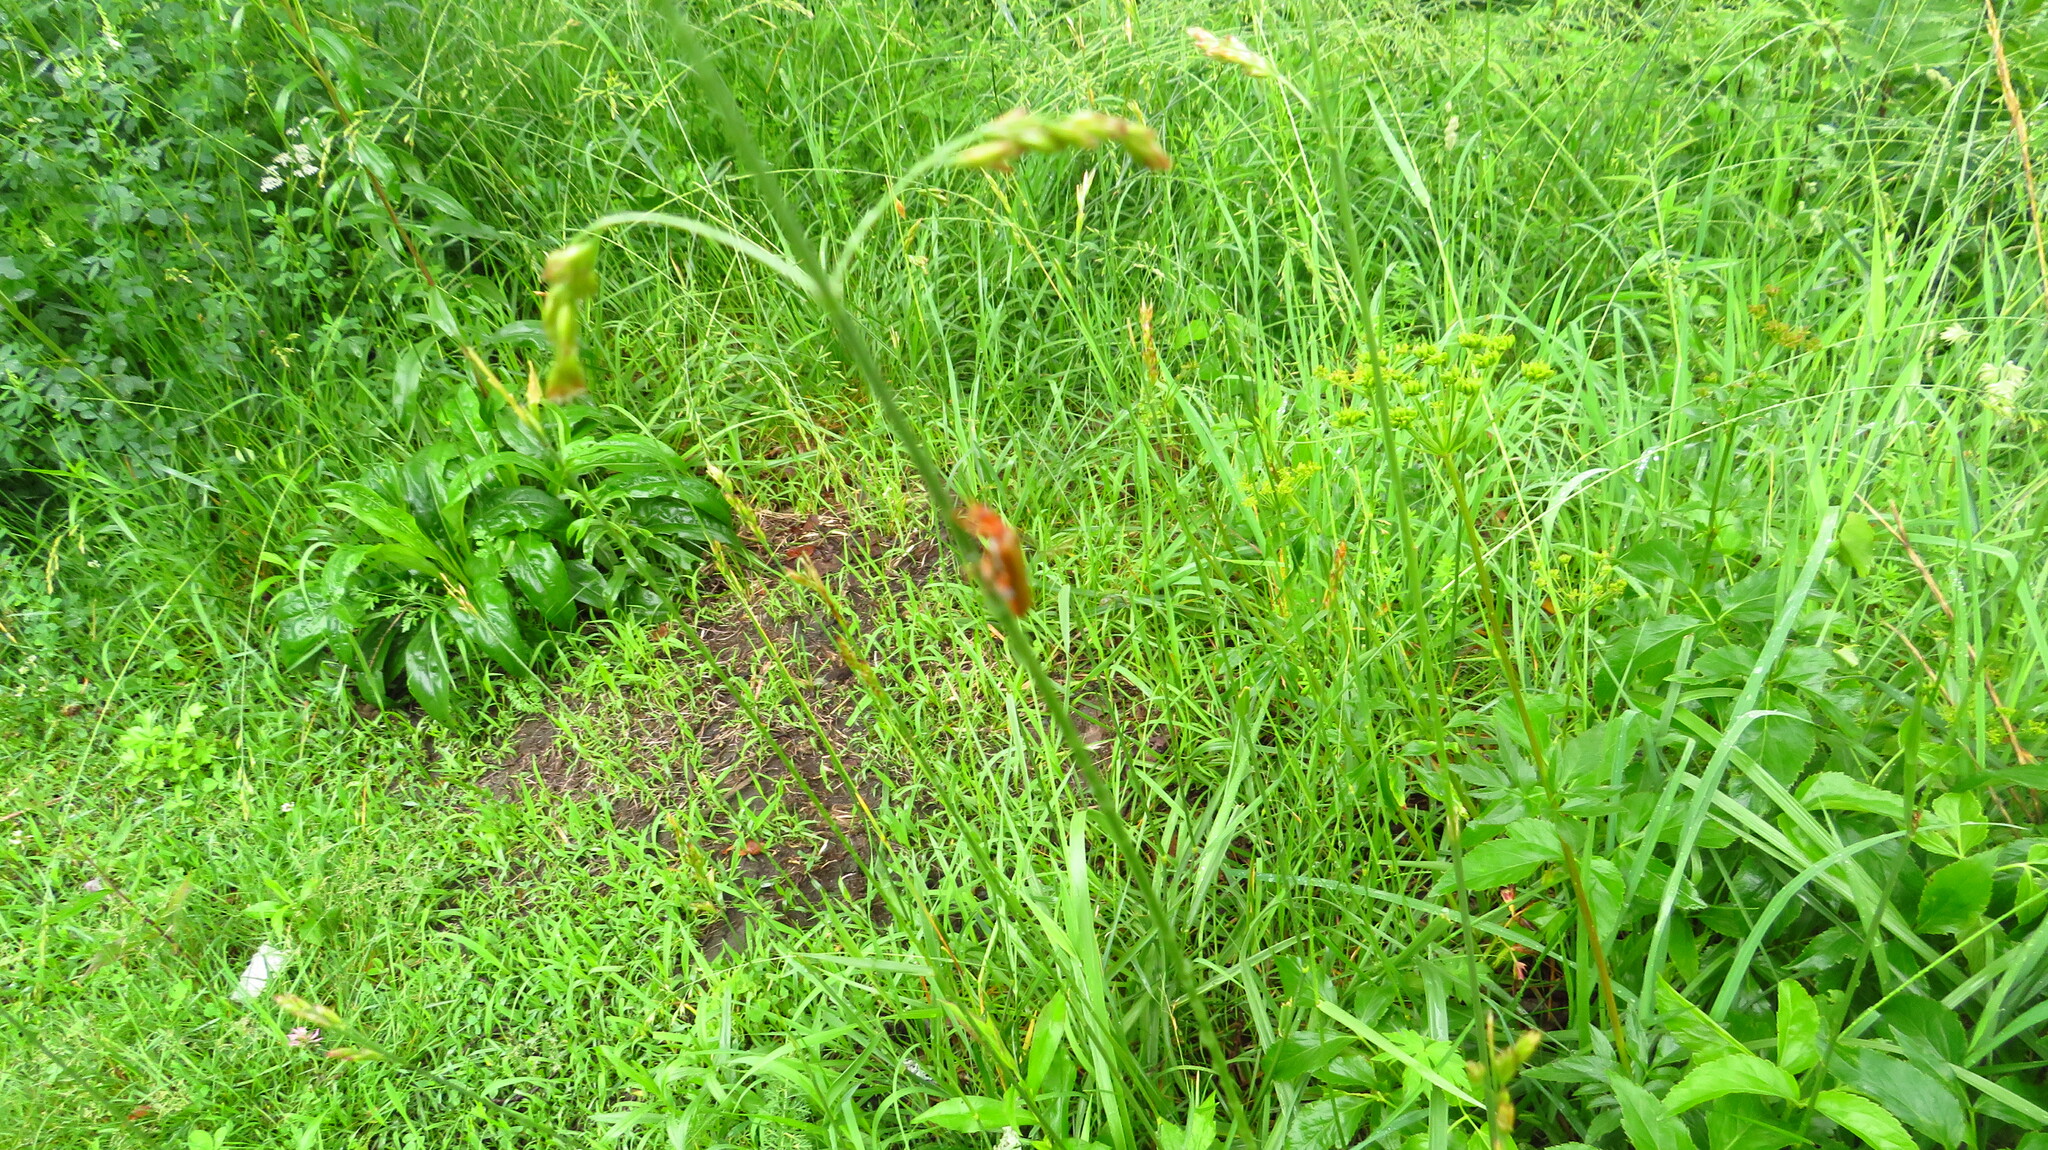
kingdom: Animalia
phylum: Arthropoda
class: Insecta
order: Coleoptera
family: Cantharidae
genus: Cantharis
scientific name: Cantharis livida
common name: Livid soldier beetle
